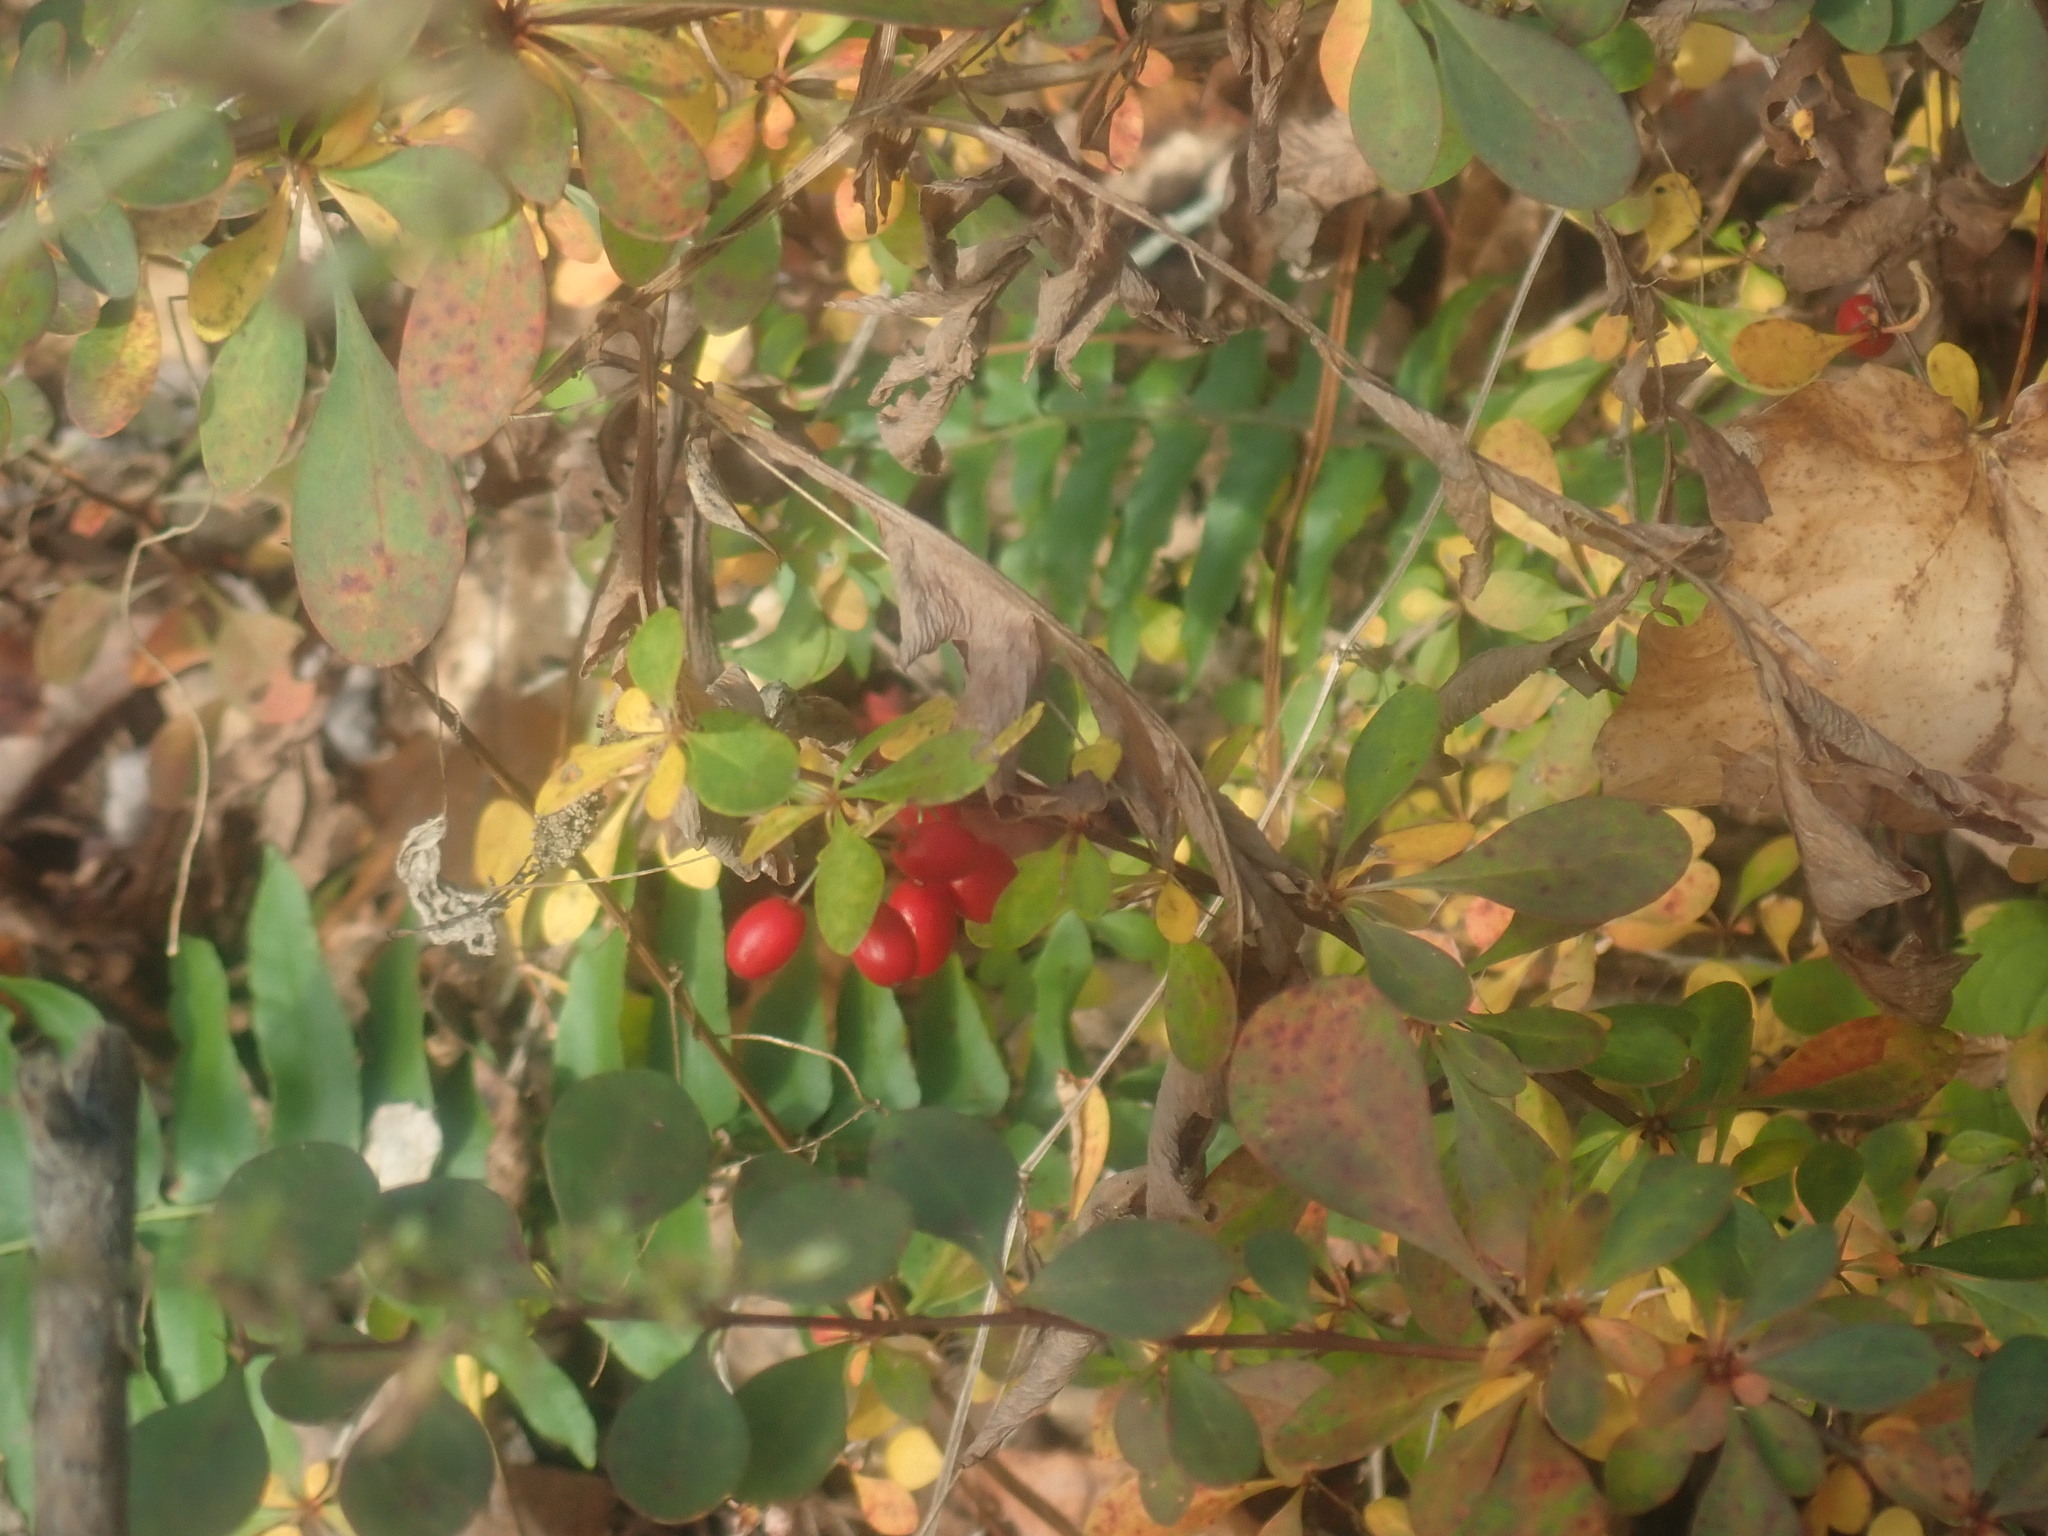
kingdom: Plantae
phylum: Tracheophyta
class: Magnoliopsida
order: Ranunculales
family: Berberidaceae
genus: Berberis
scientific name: Berberis thunbergii
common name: Japanese barberry
